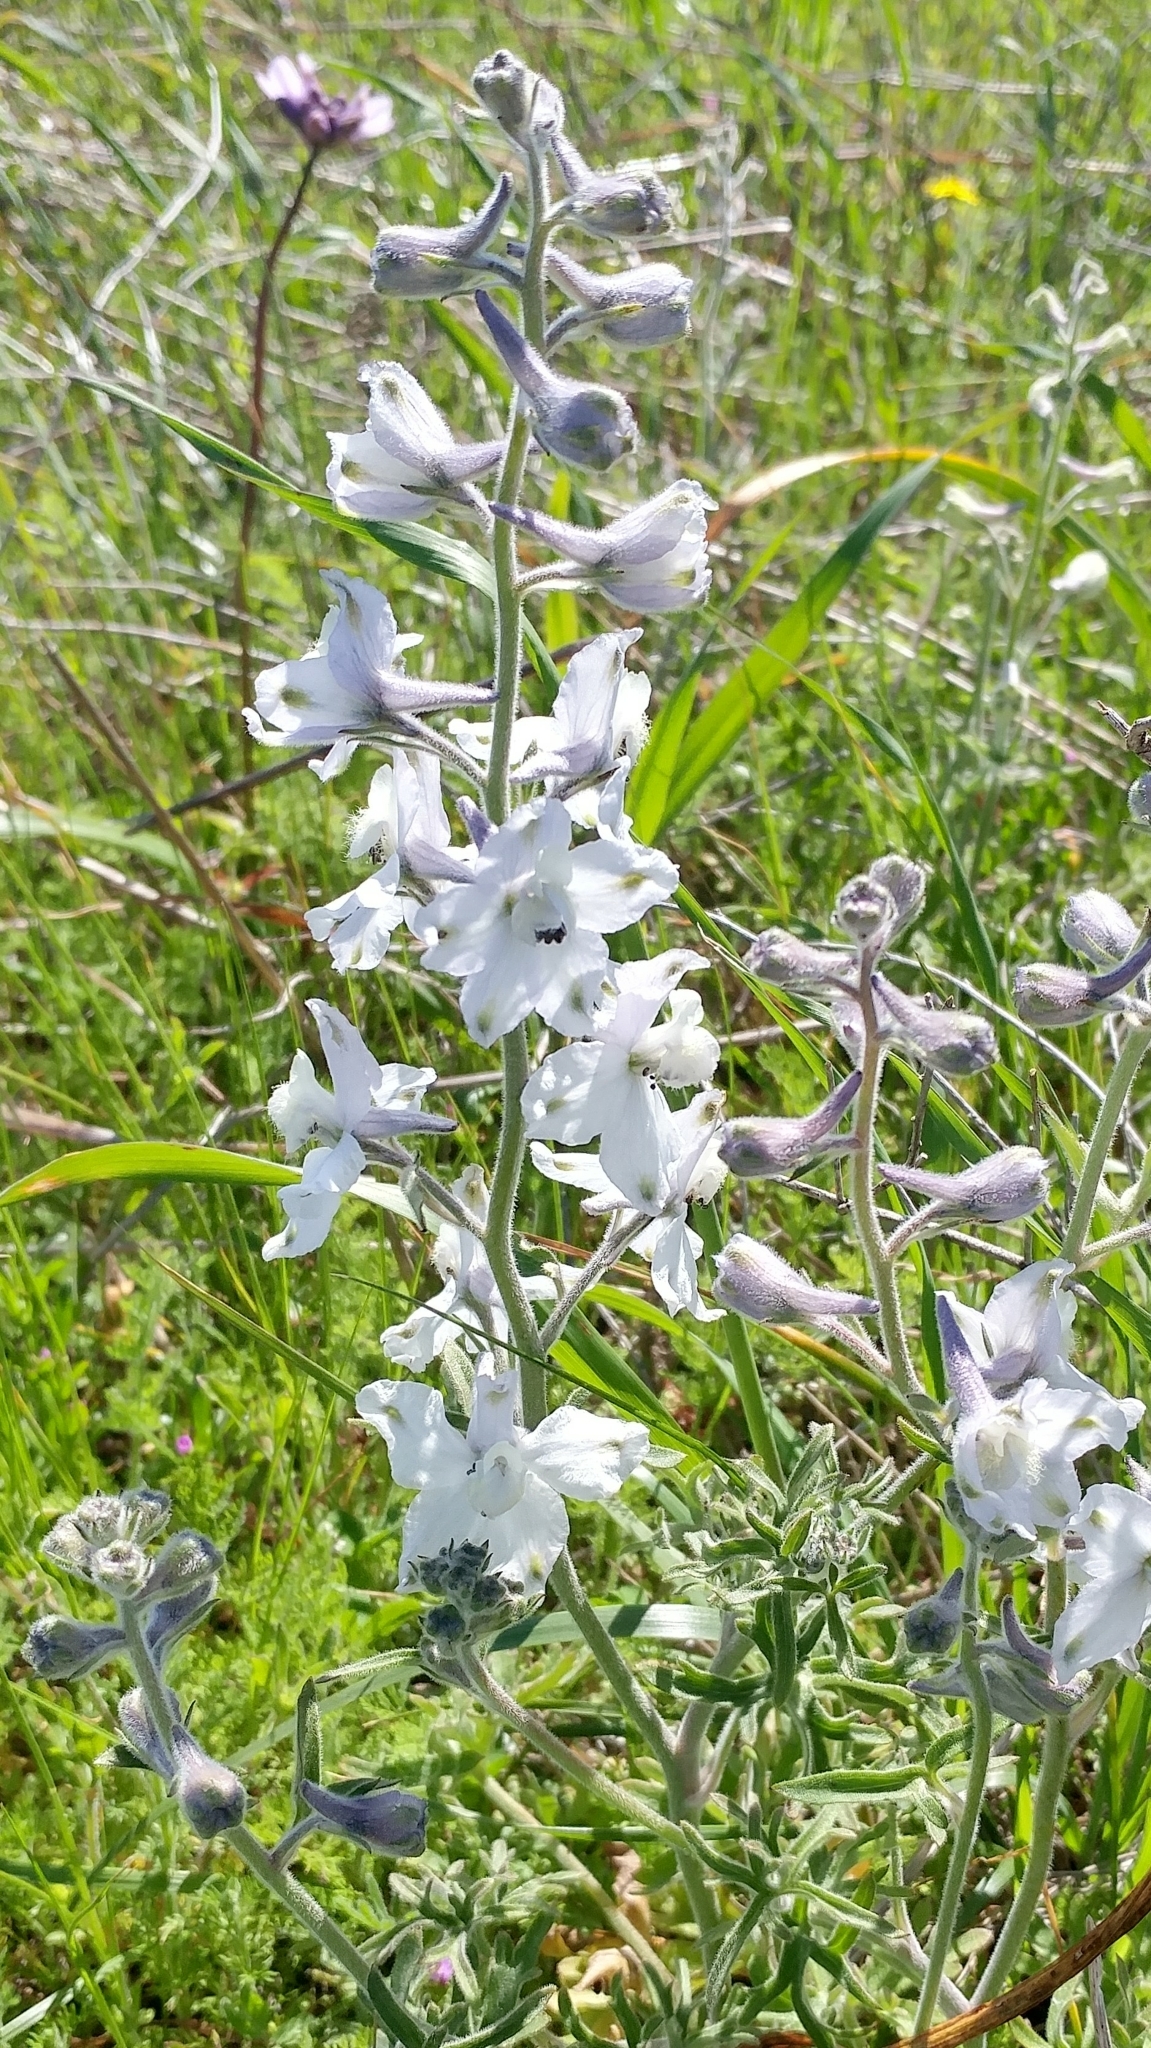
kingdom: Plantae
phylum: Tracheophyta
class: Magnoliopsida
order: Ranunculales
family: Ranunculaceae
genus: Delphinium
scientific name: Delphinium variegatum
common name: Royal larkspur
